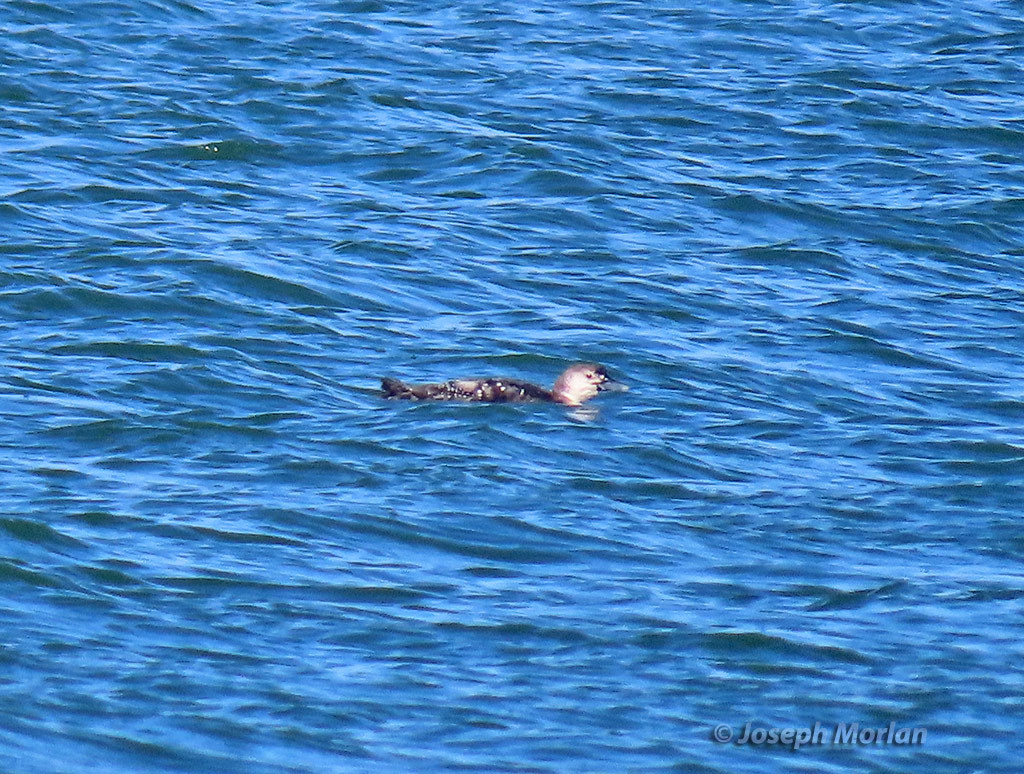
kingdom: Animalia
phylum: Chordata
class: Aves
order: Gaviiformes
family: Gaviidae
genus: Gavia
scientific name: Gavia stellata
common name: Red-throated loon
